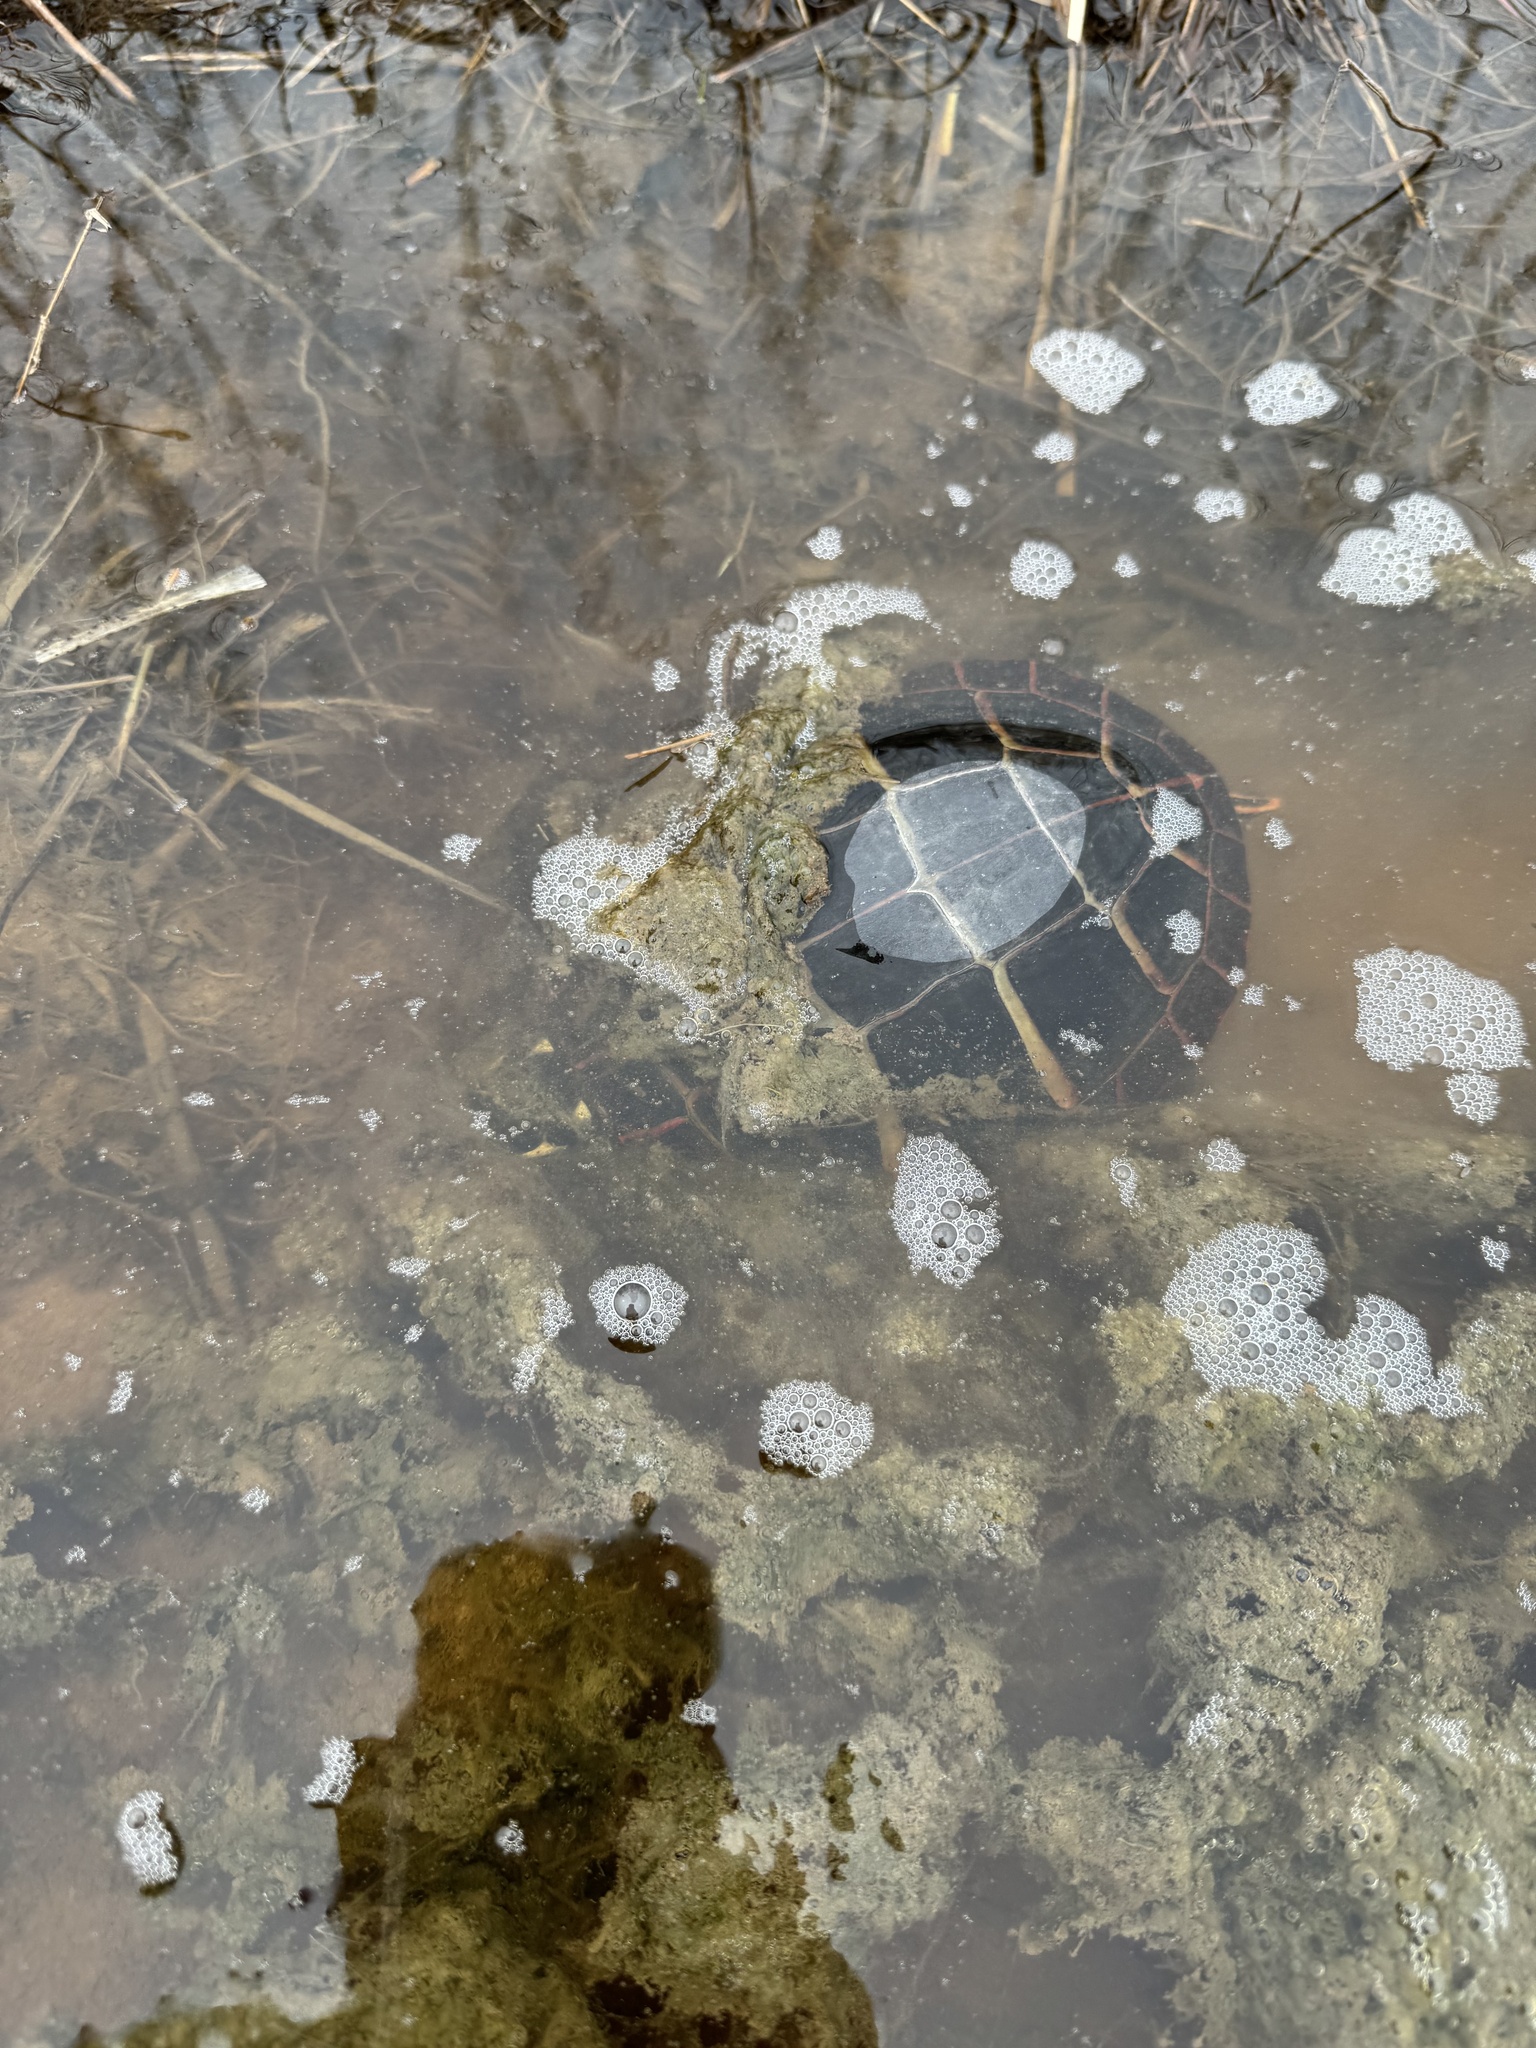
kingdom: Animalia
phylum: Chordata
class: Testudines
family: Emydidae
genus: Chrysemys
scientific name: Chrysemys picta
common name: Painted turtle
